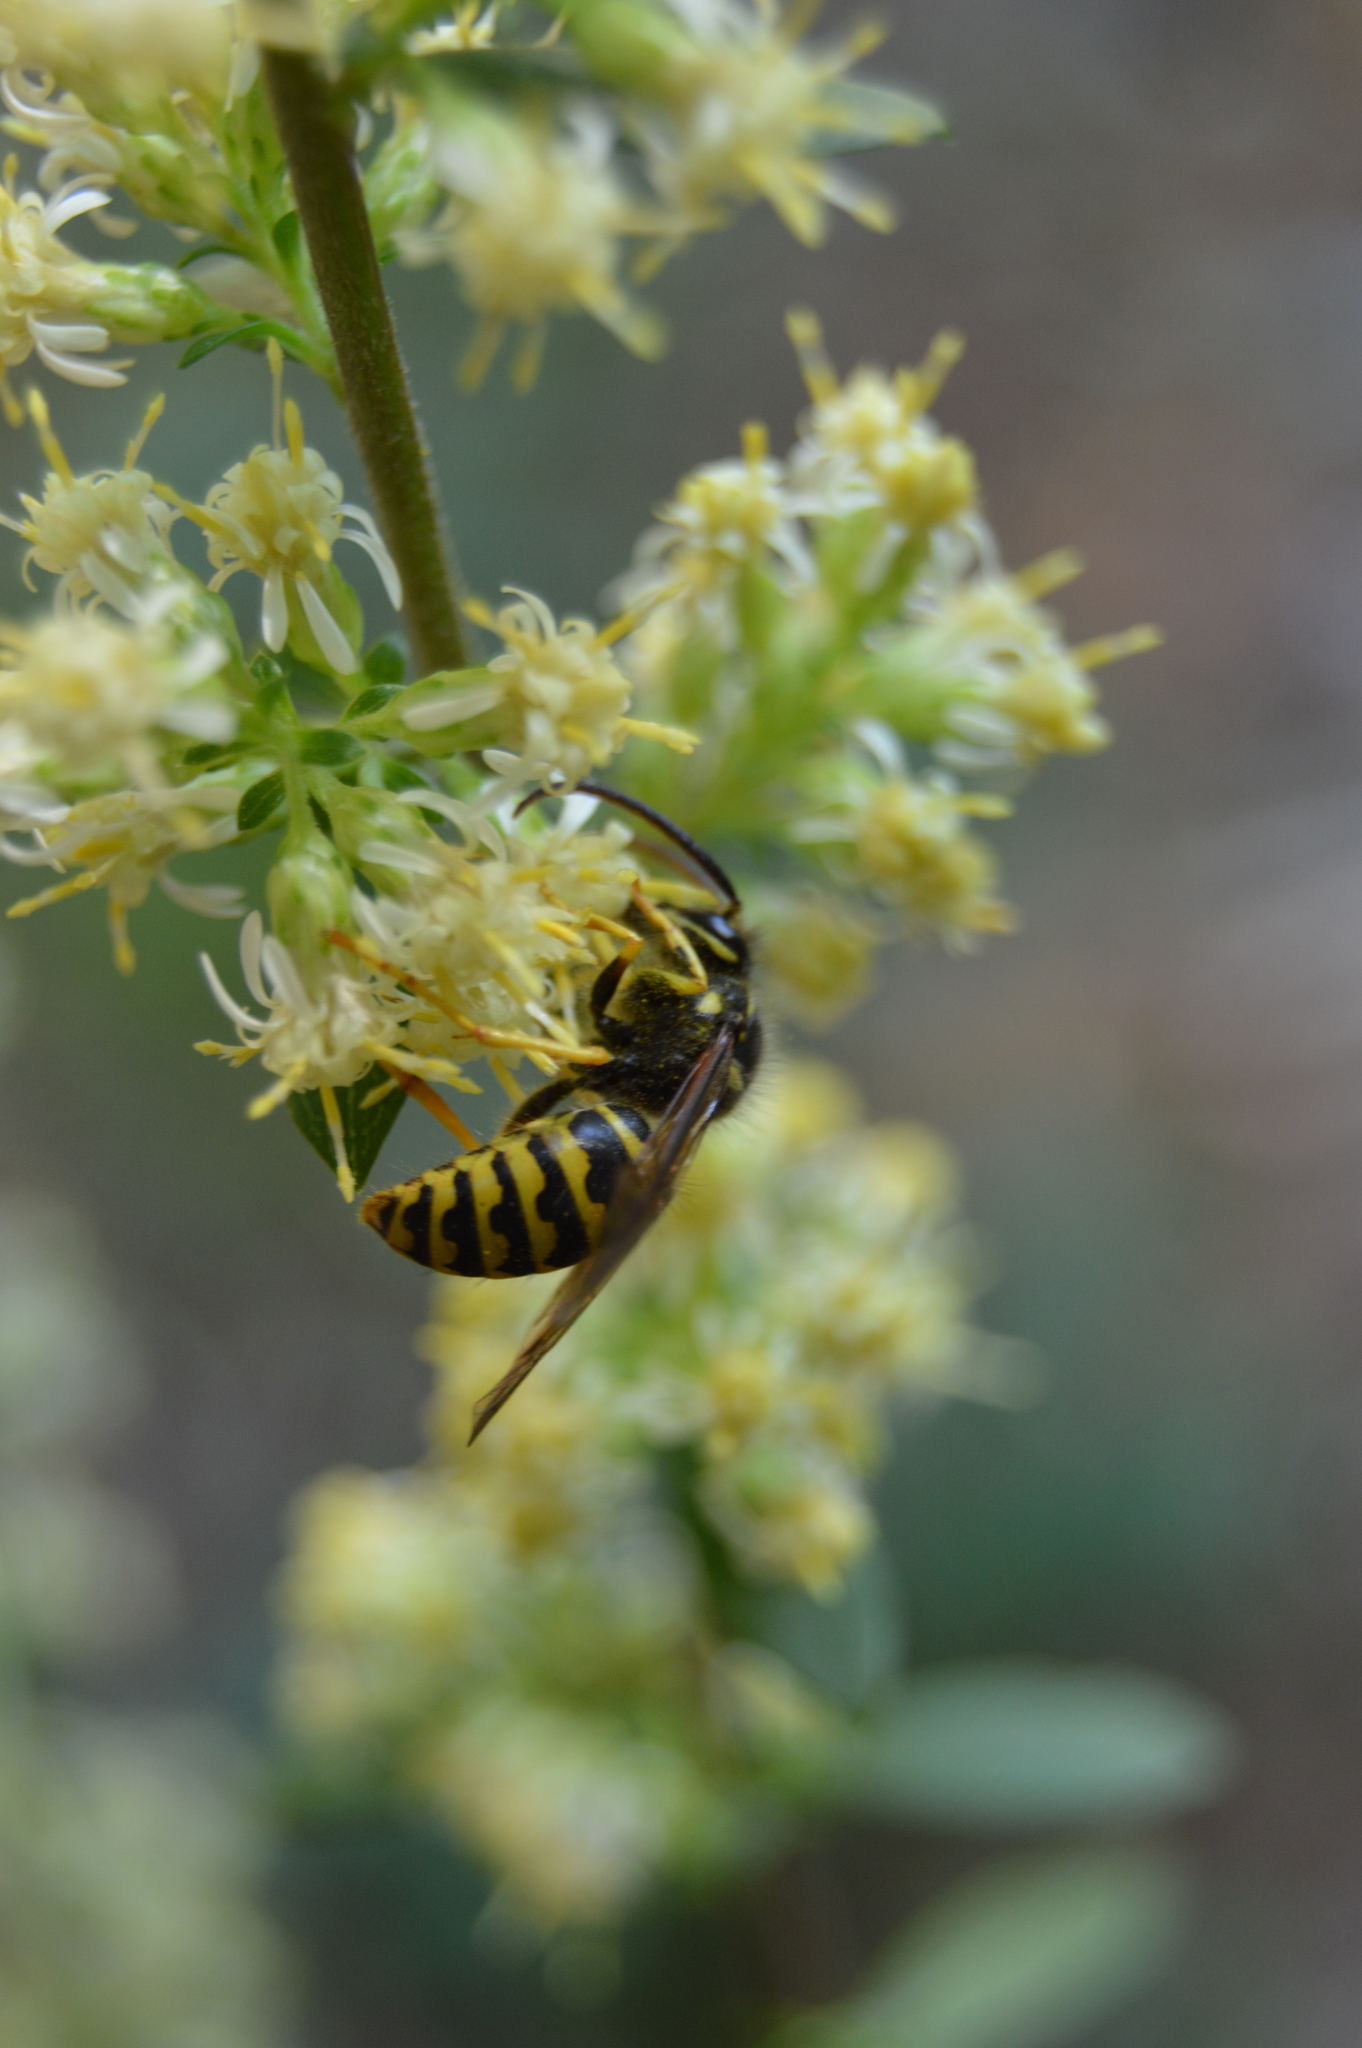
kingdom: Animalia
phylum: Arthropoda
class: Insecta
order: Hymenoptera
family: Vespidae
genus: Dolichovespula
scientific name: Dolichovespula arenaria
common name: Aerial yellowjacket
